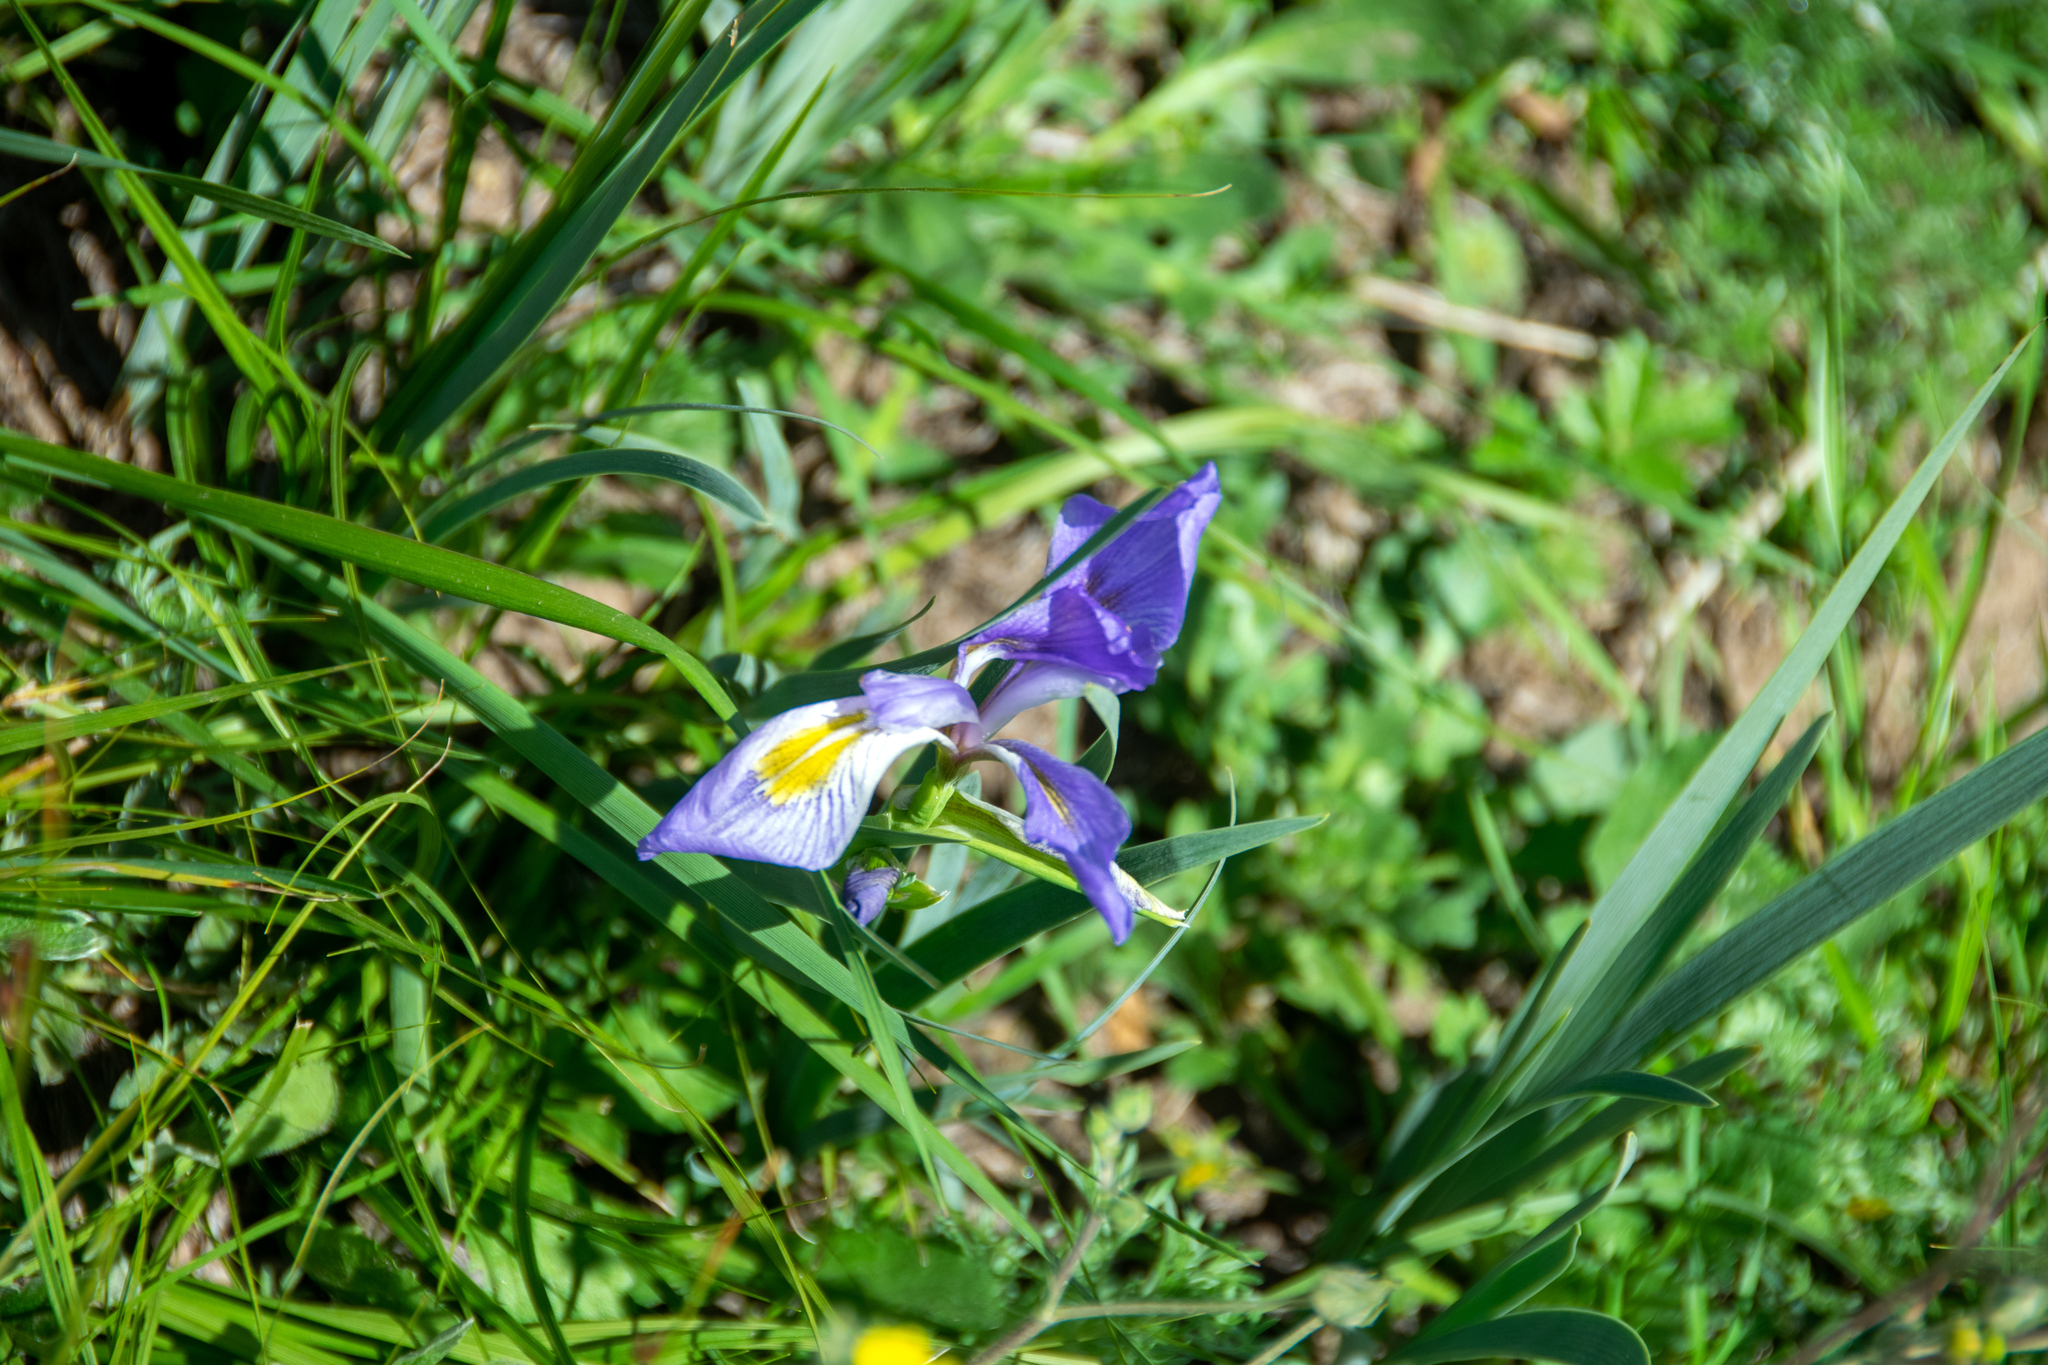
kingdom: Plantae
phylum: Tracheophyta
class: Liliopsida
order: Asparagales
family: Iridaceae
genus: Iris
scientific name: Iris missouriensis
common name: Rocky mountain iris
